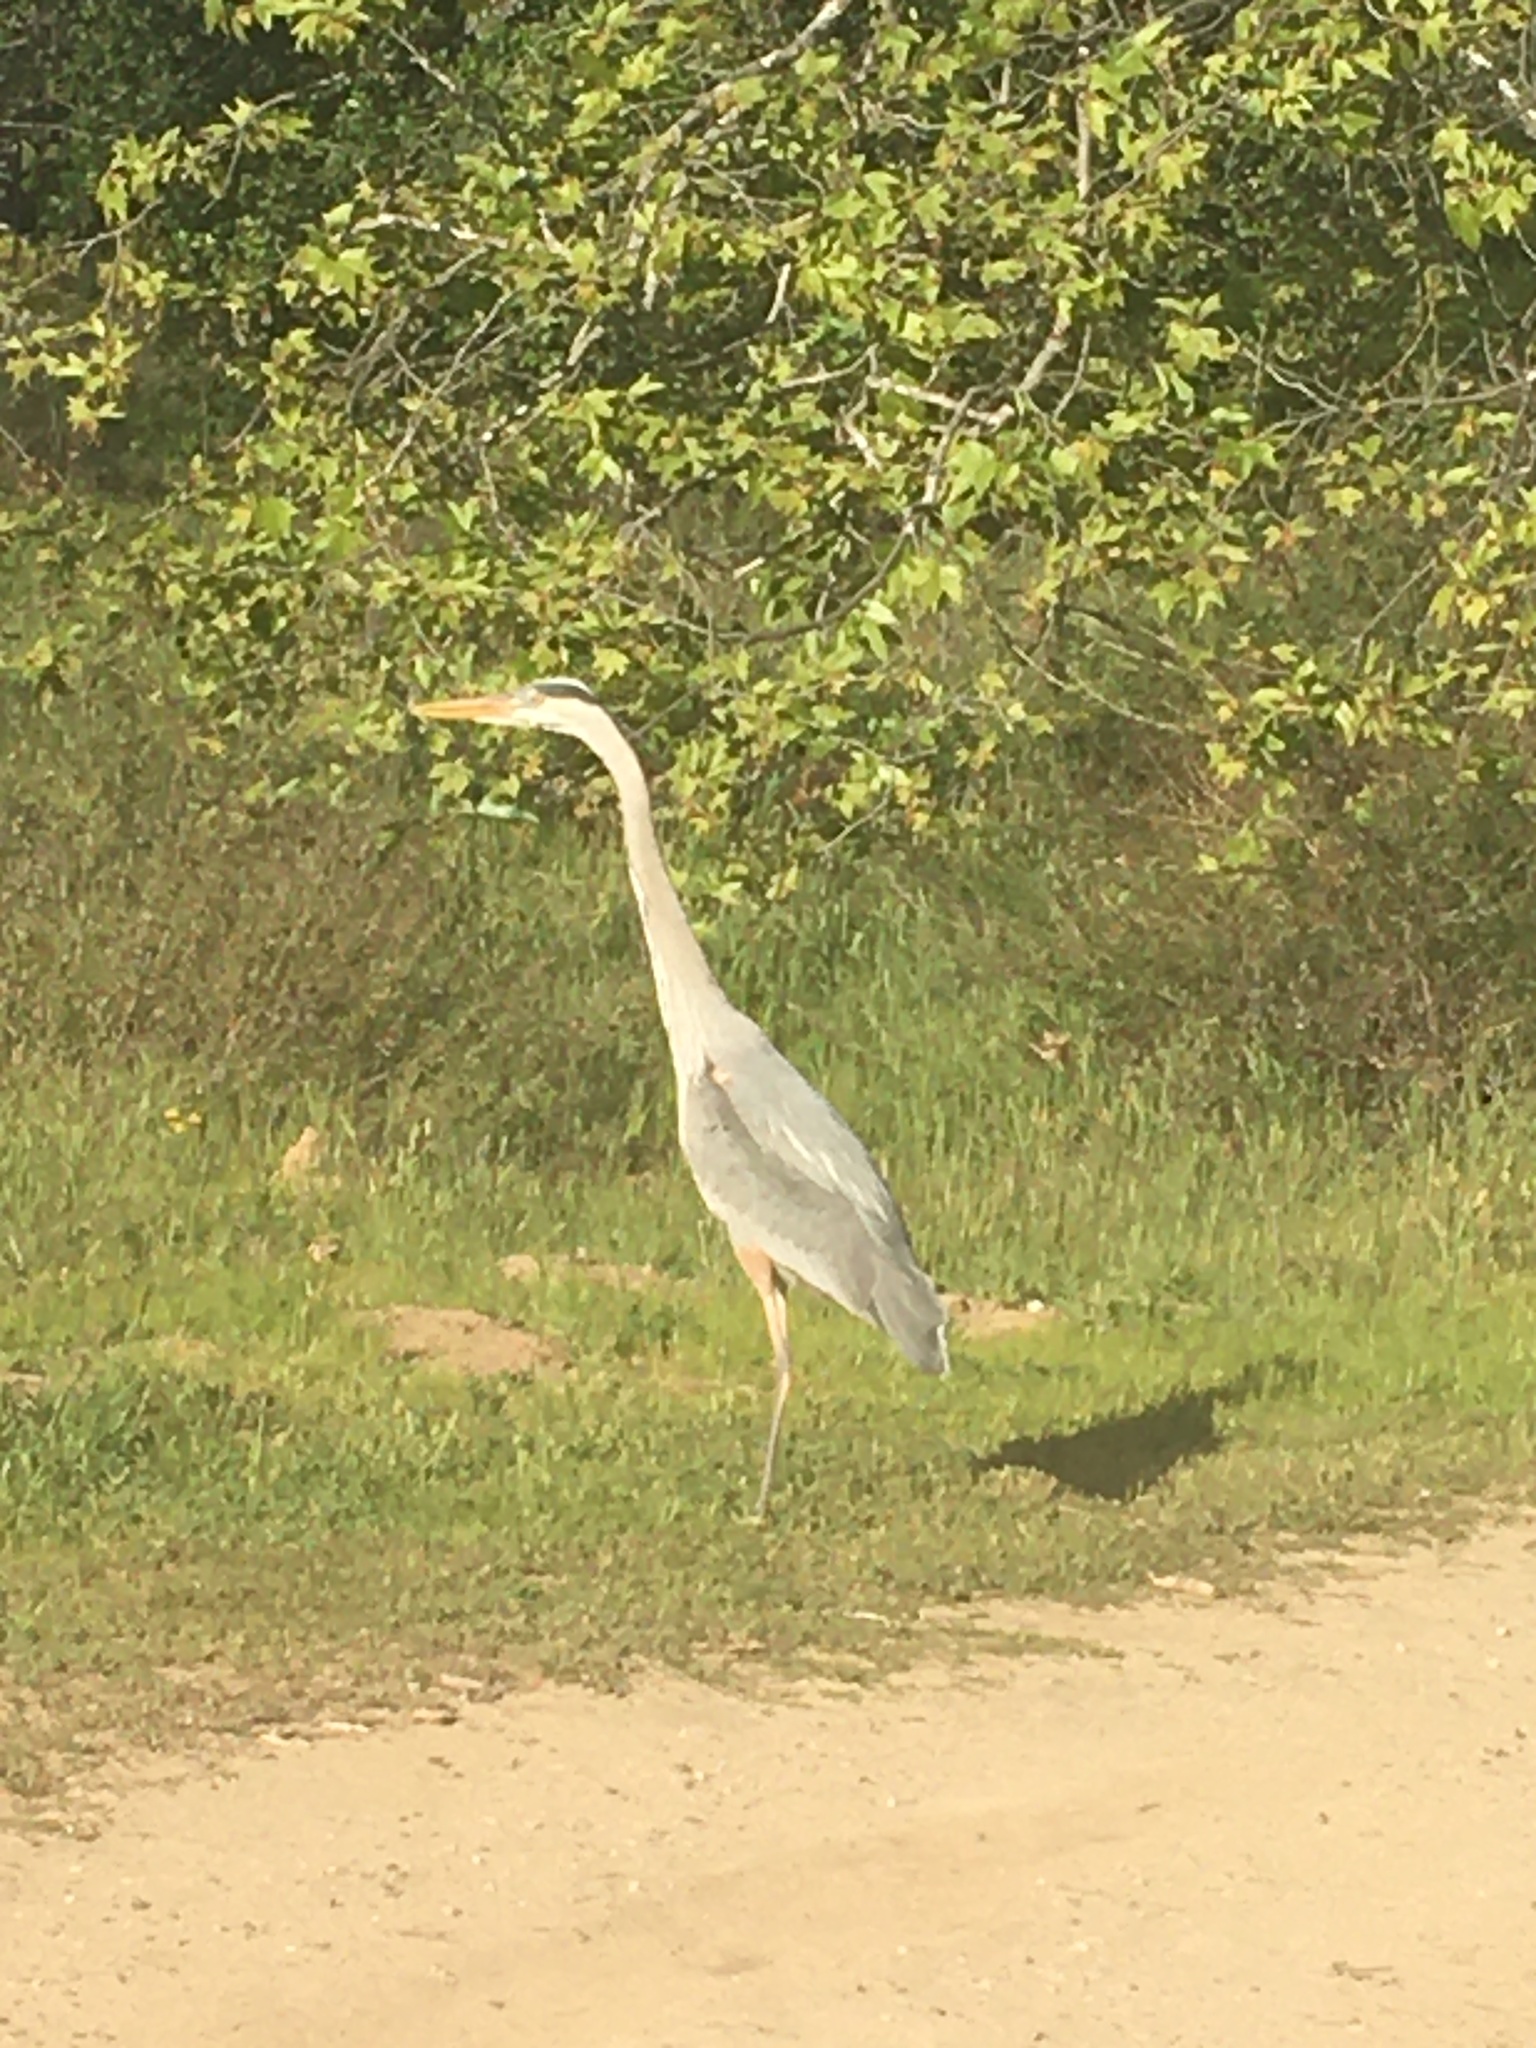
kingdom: Animalia
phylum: Chordata
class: Aves
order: Pelecaniformes
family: Ardeidae
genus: Ardea
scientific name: Ardea herodias
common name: Great blue heron
